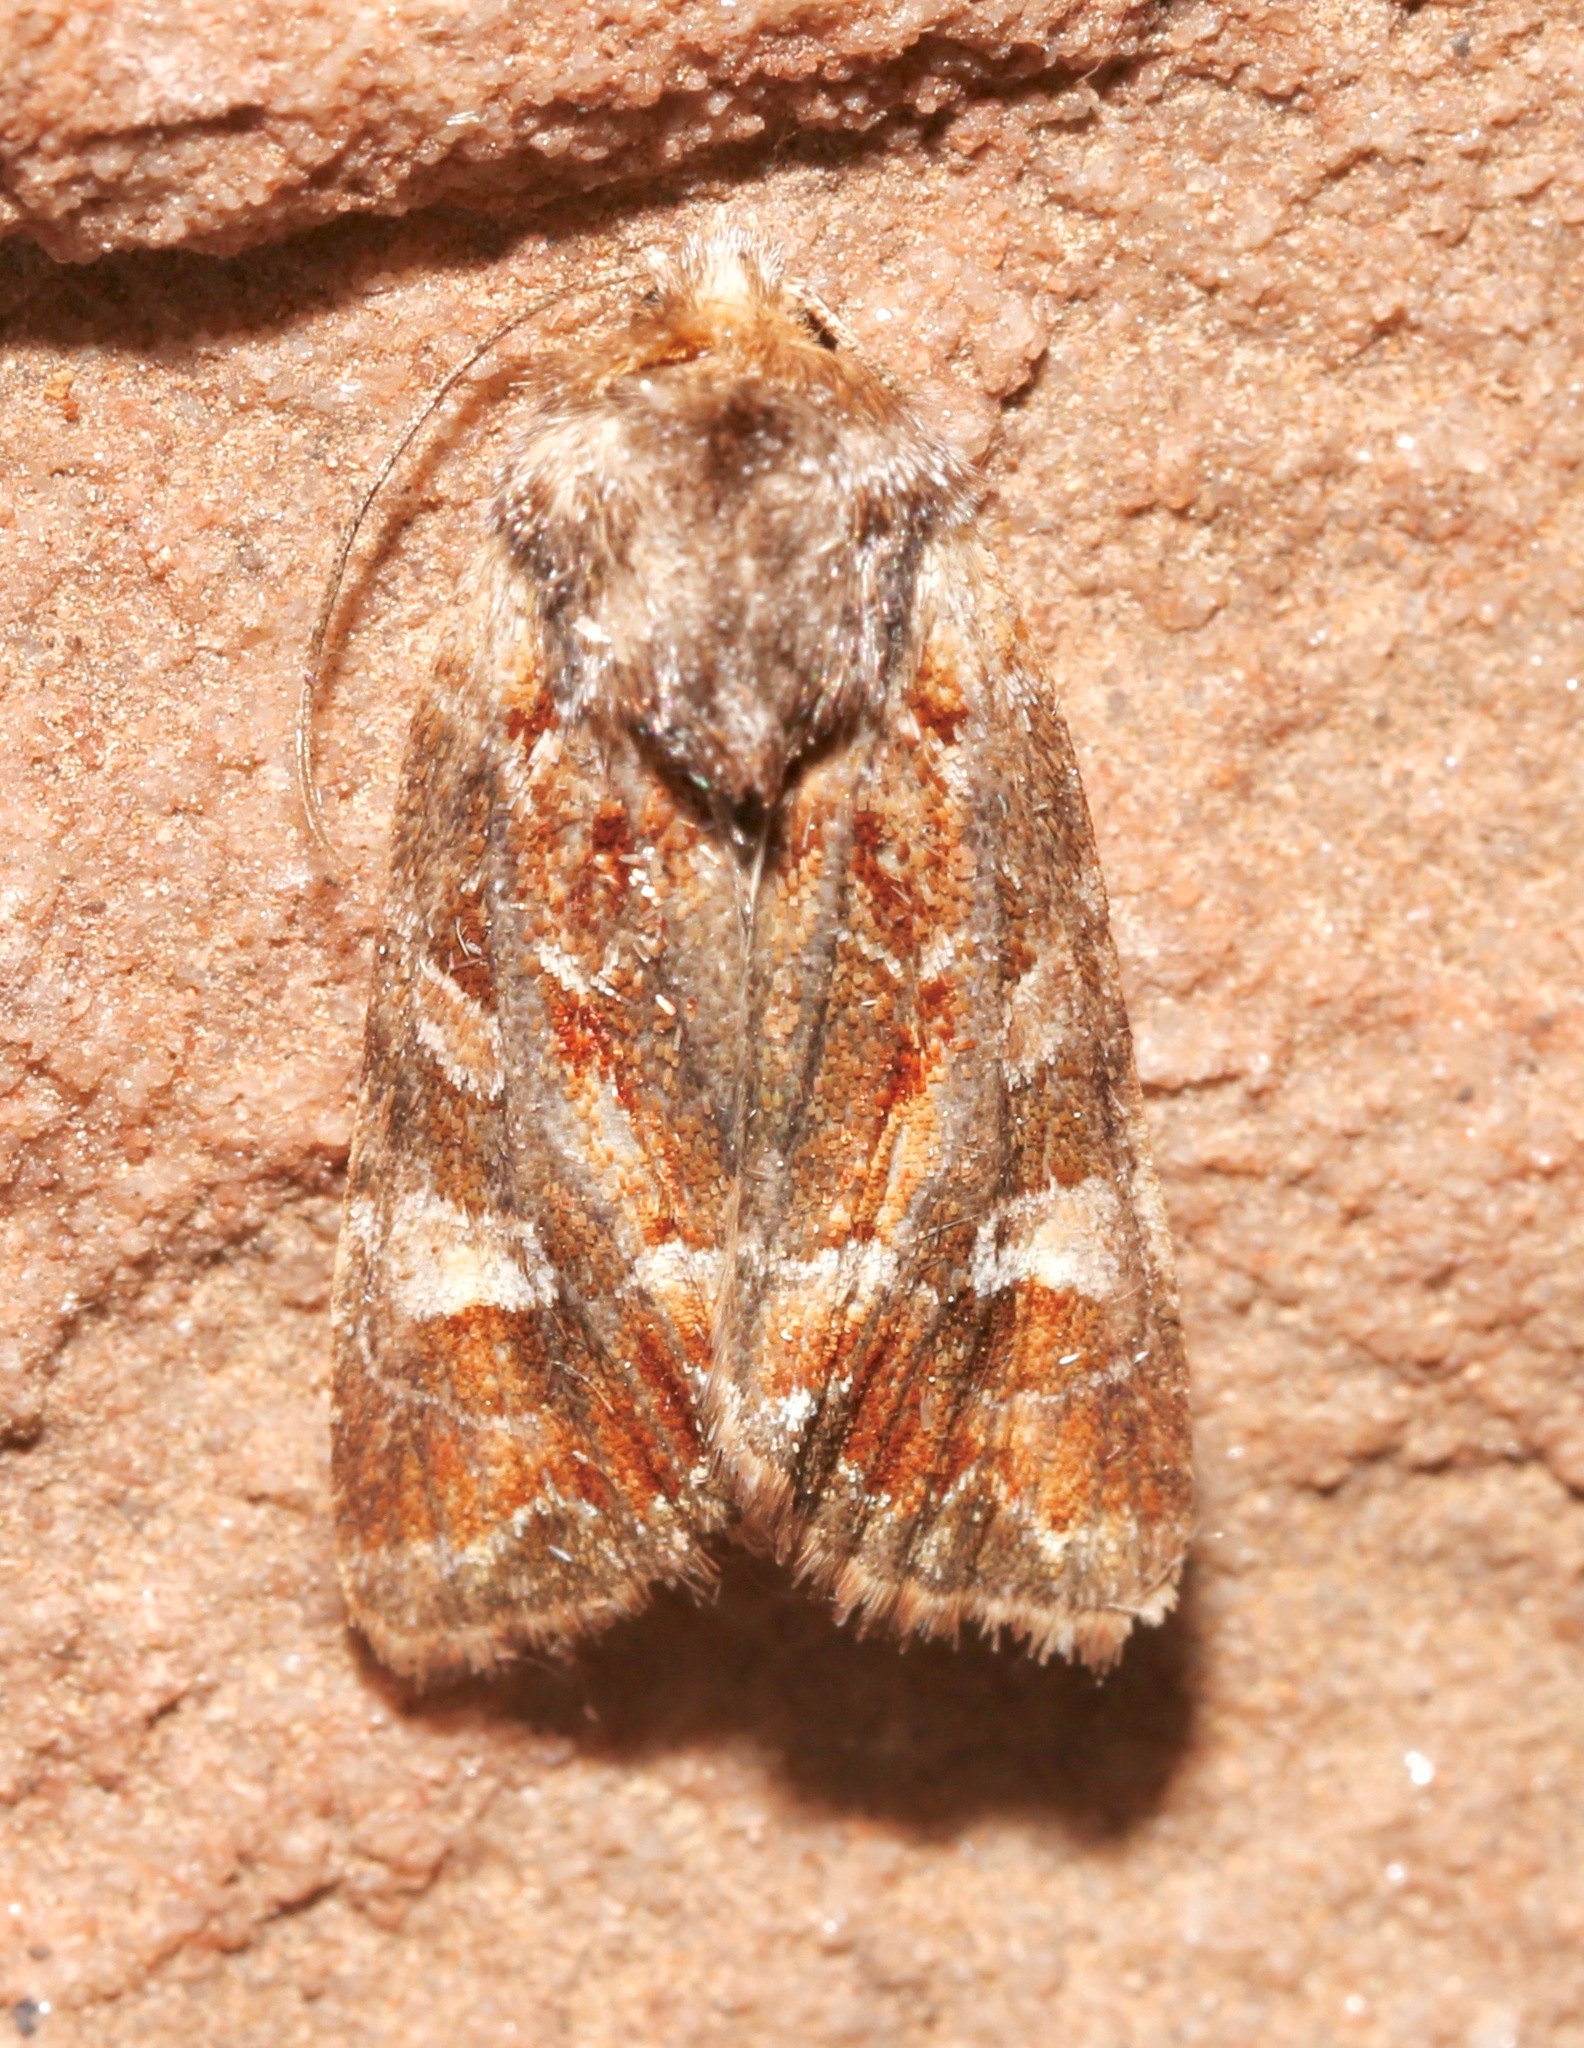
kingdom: Animalia
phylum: Arthropoda
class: Insecta
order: Lepidoptera
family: Noctuidae
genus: Lacinipolia
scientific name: Lacinipolia lepidula
